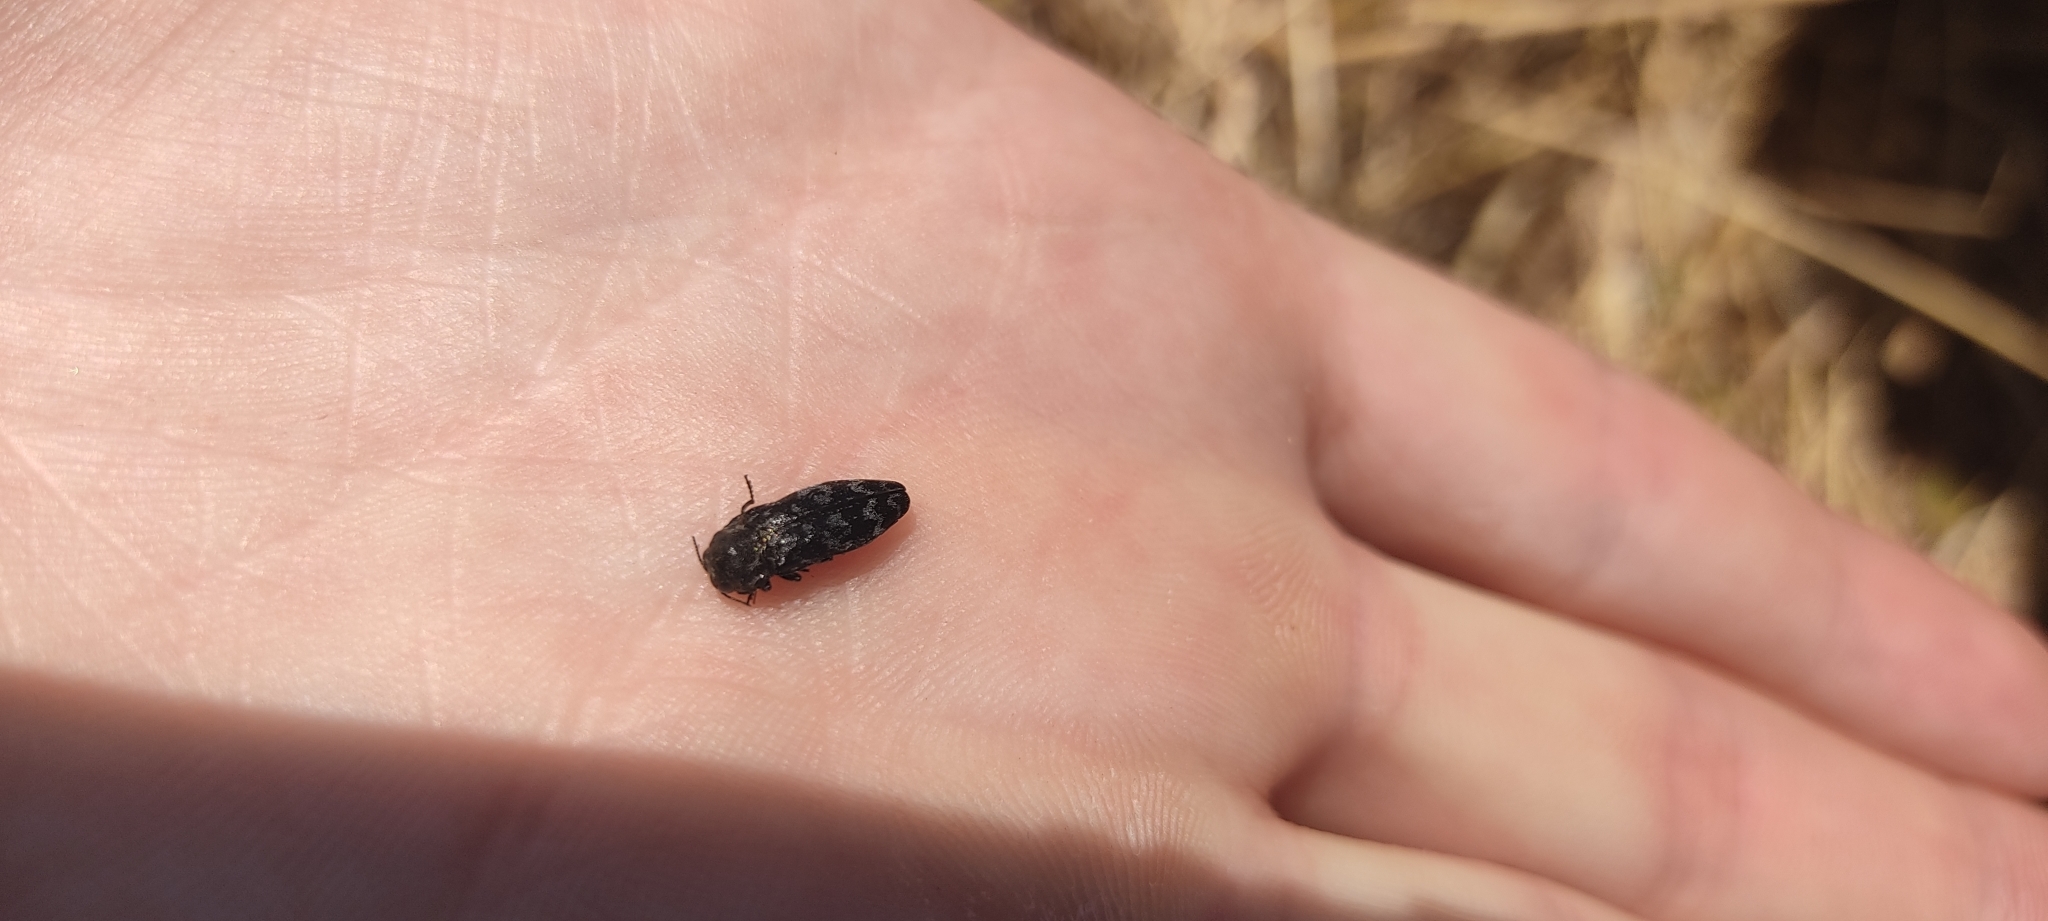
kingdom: Animalia
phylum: Arthropoda
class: Insecta
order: Coleoptera
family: Buprestidae
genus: Coraebus
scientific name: Coraebus rubi
